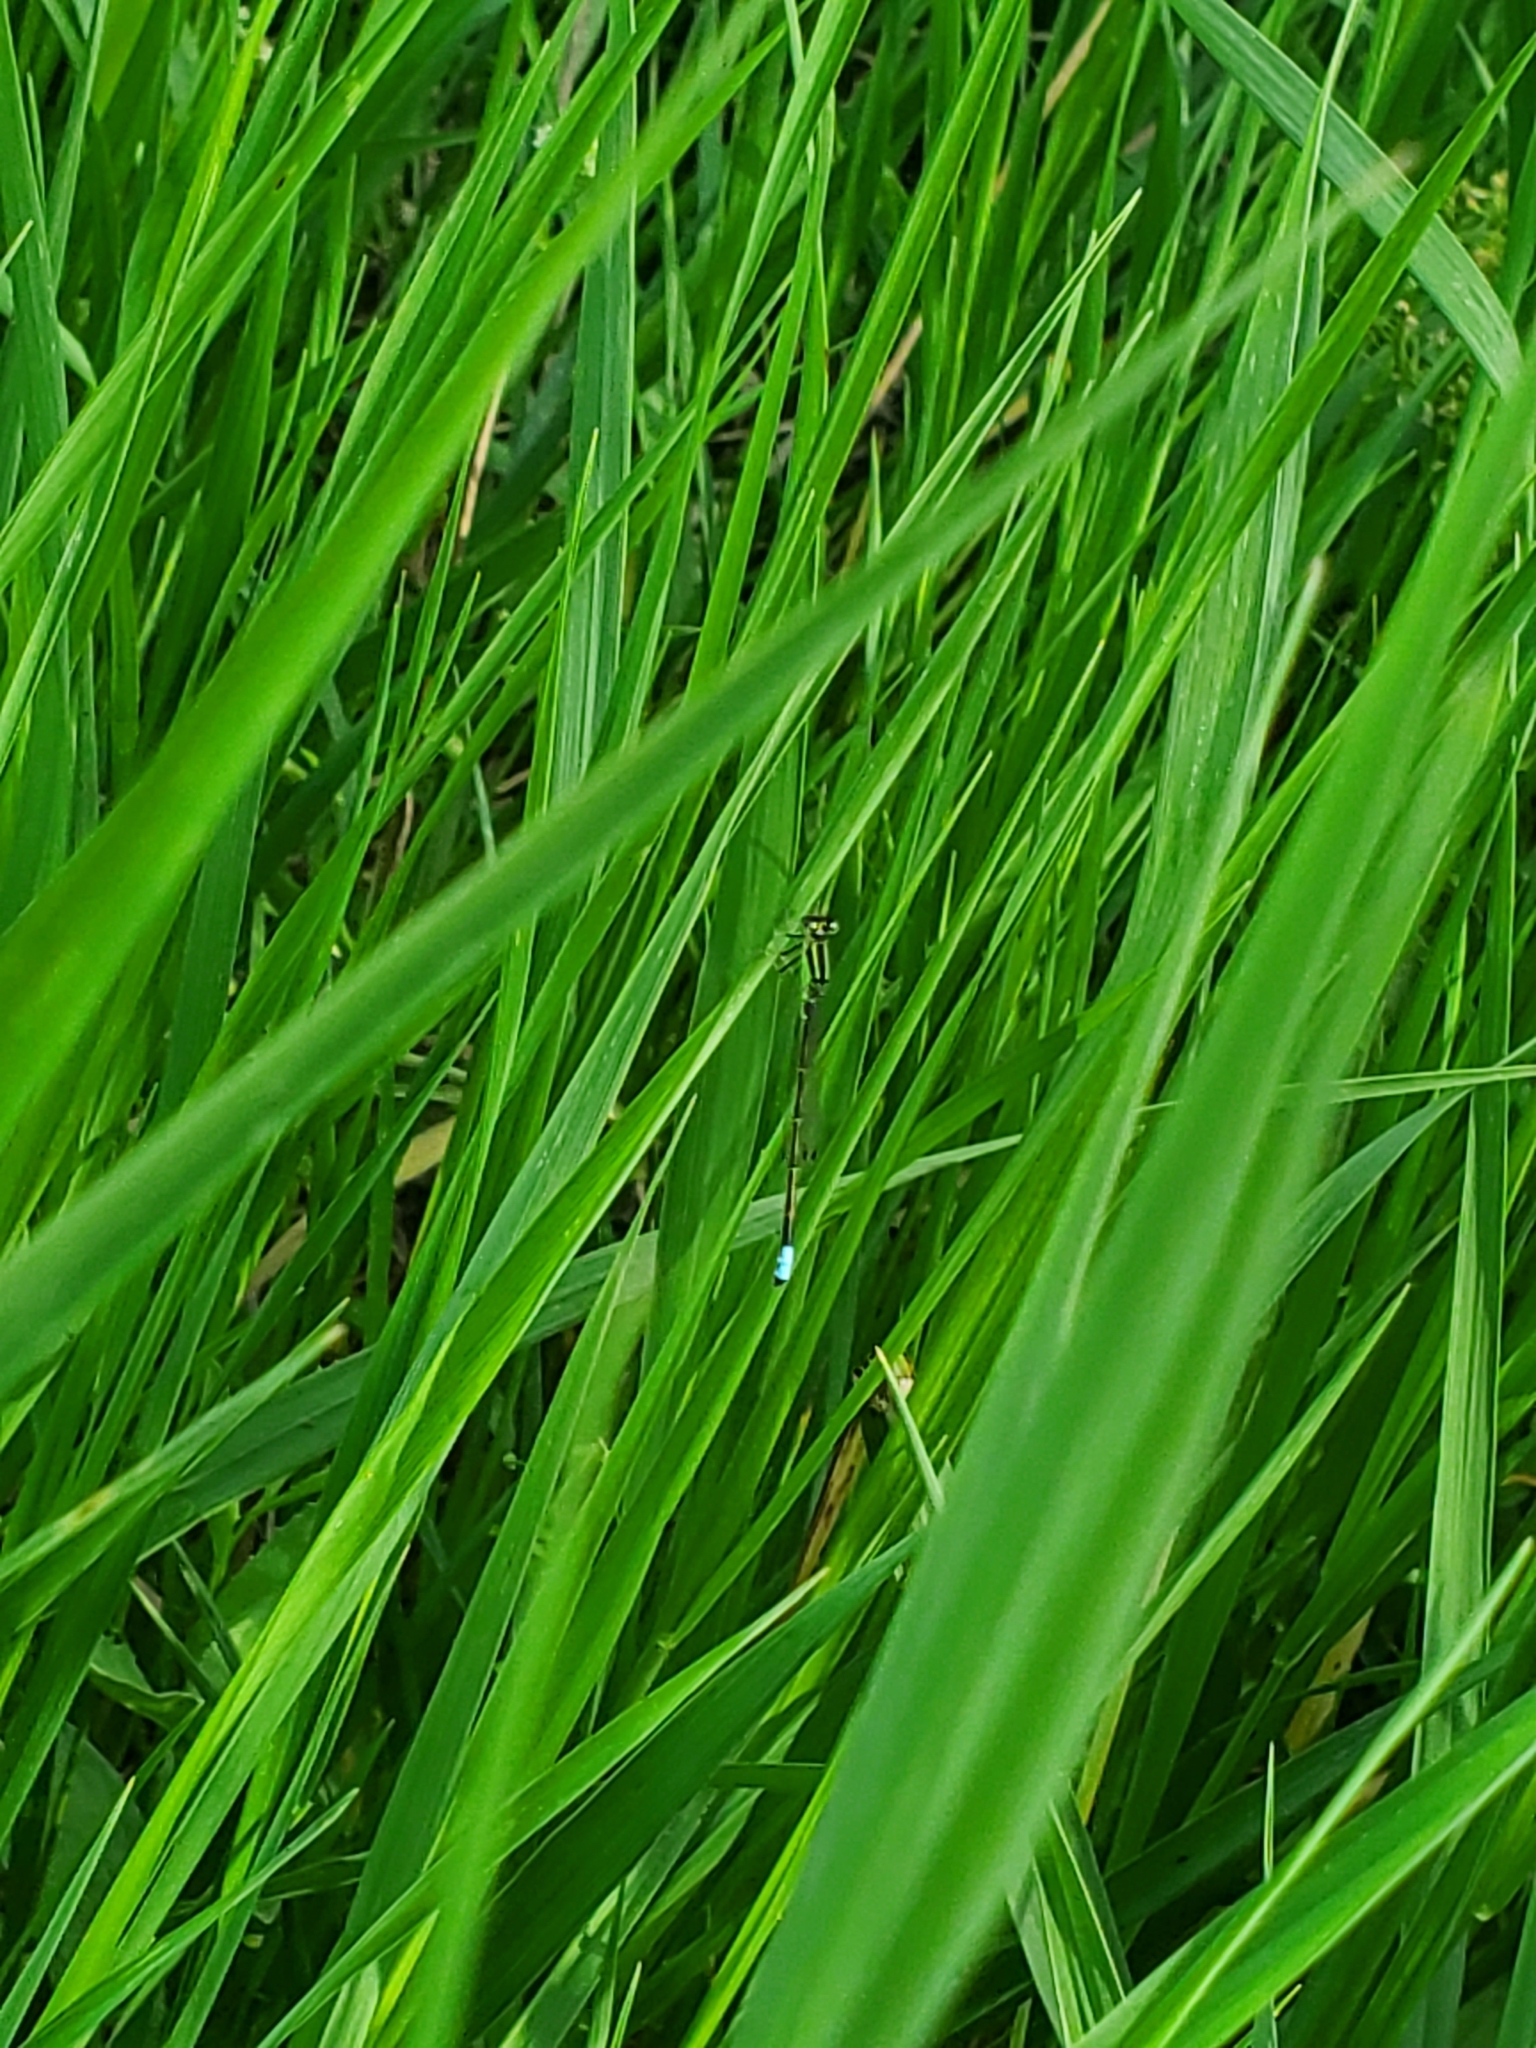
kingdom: Animalia
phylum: Arthropoda
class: Insecta
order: Odonata
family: Coenagrionidae
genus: Ischnura
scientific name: Ischnura verticalis
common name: Eastern forktail
